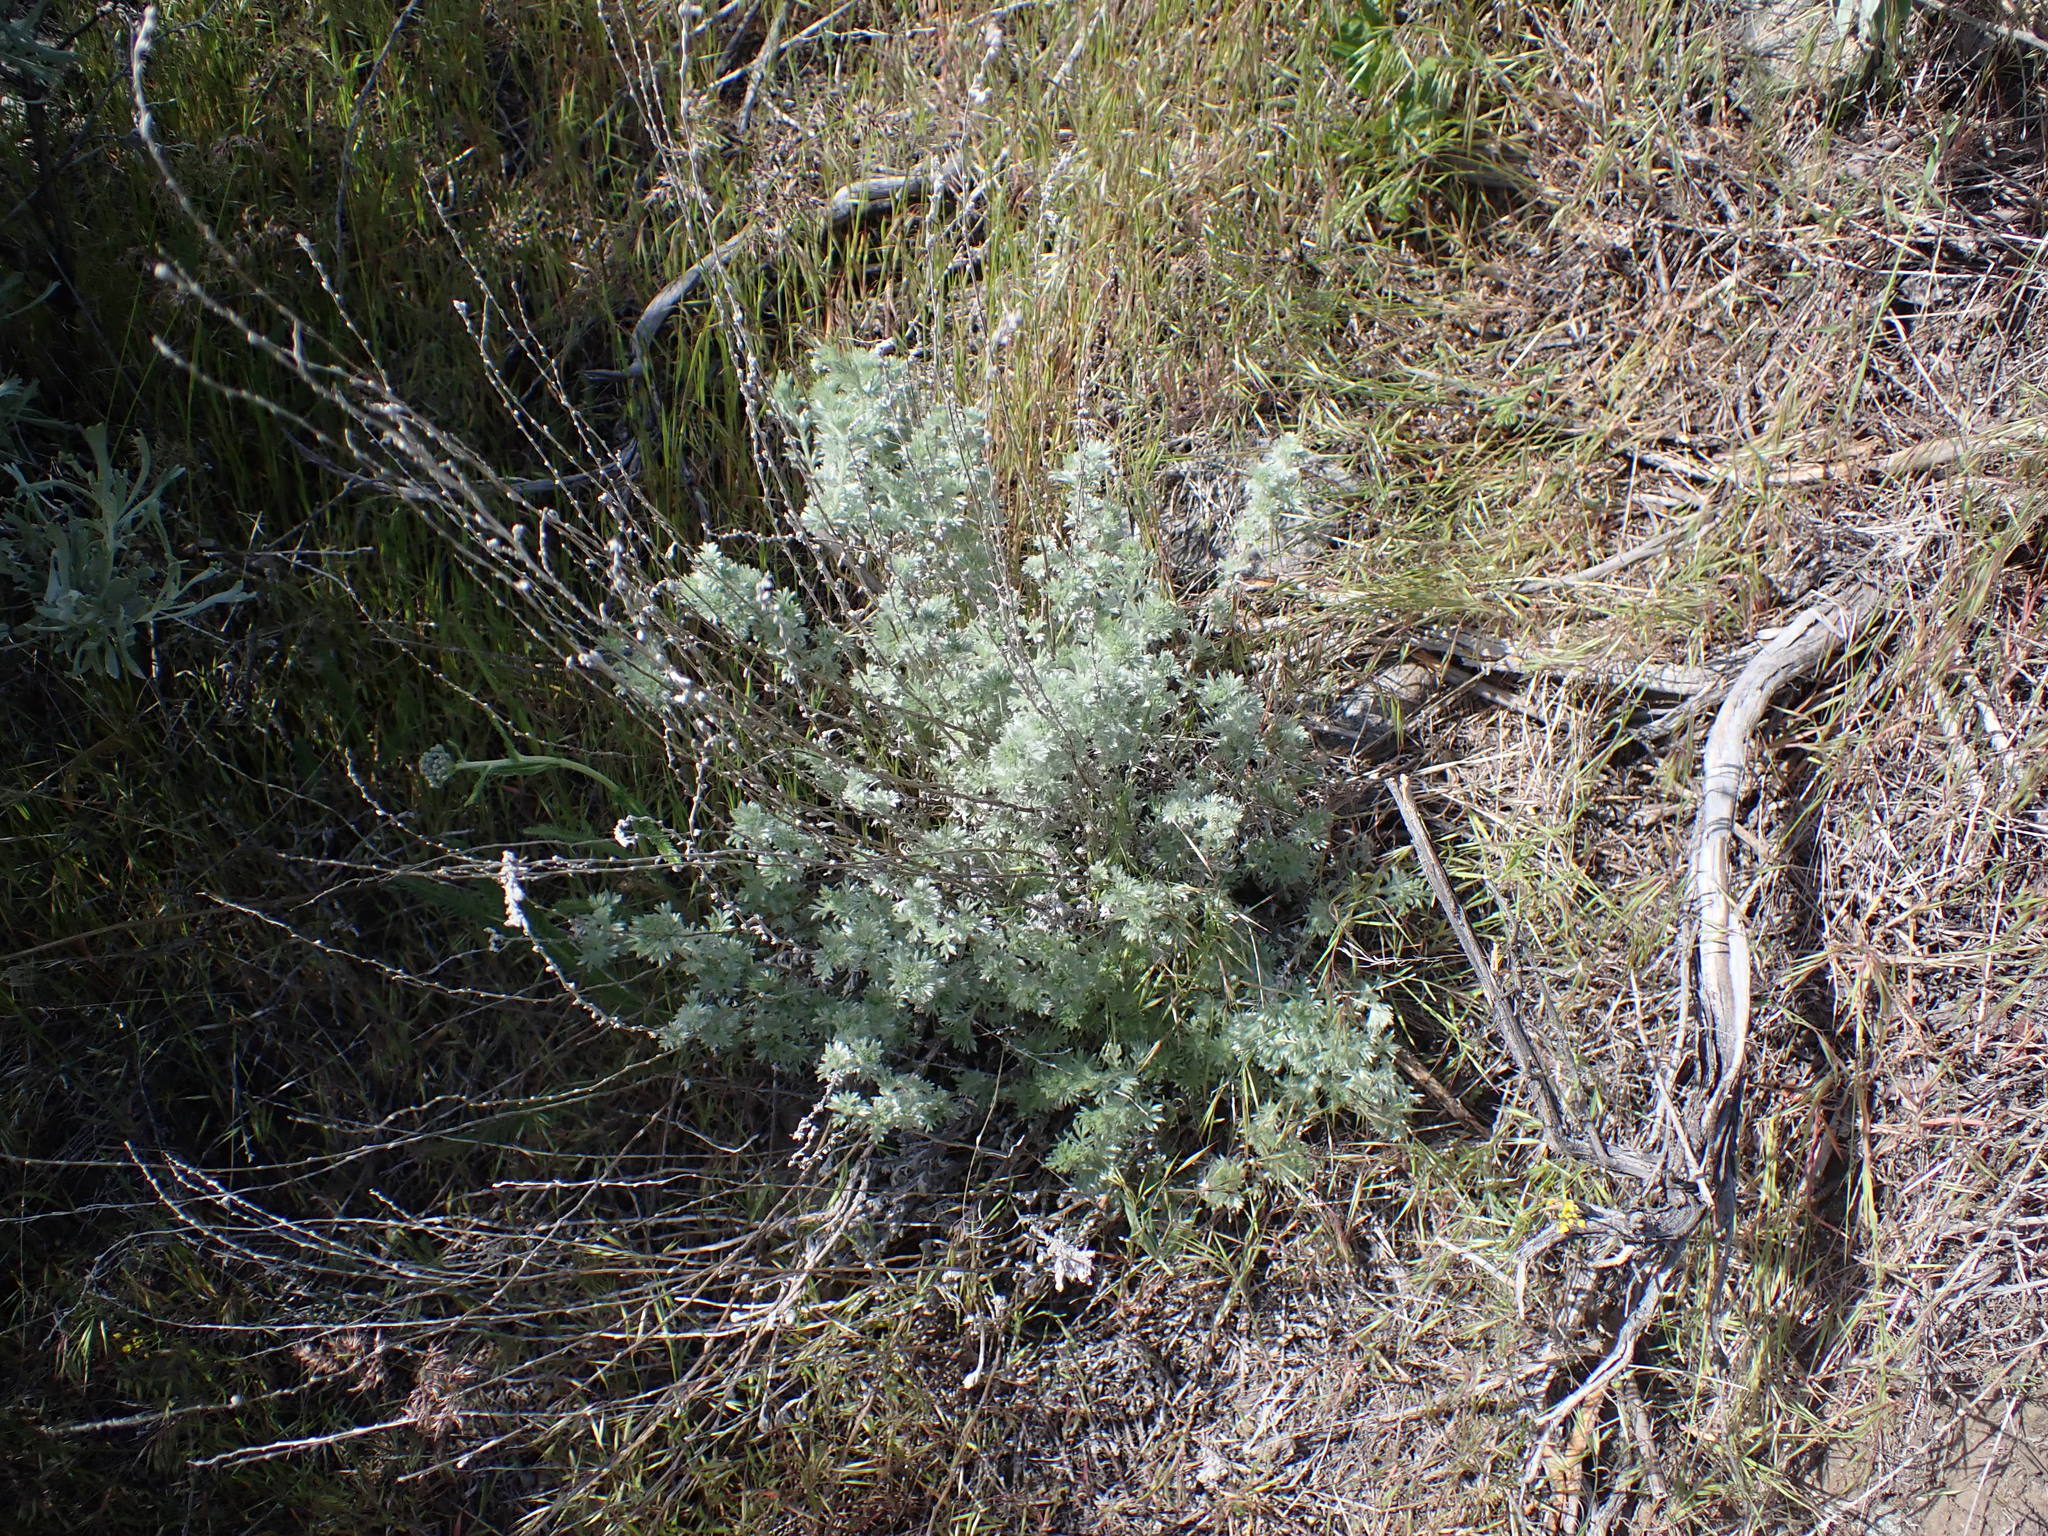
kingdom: Plantae
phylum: Tracheophyta
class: Magnoliopsida
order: Asterales
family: Asteraceae
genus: Artemisia
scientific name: Artemisia frigida
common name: Prairie sagewort
